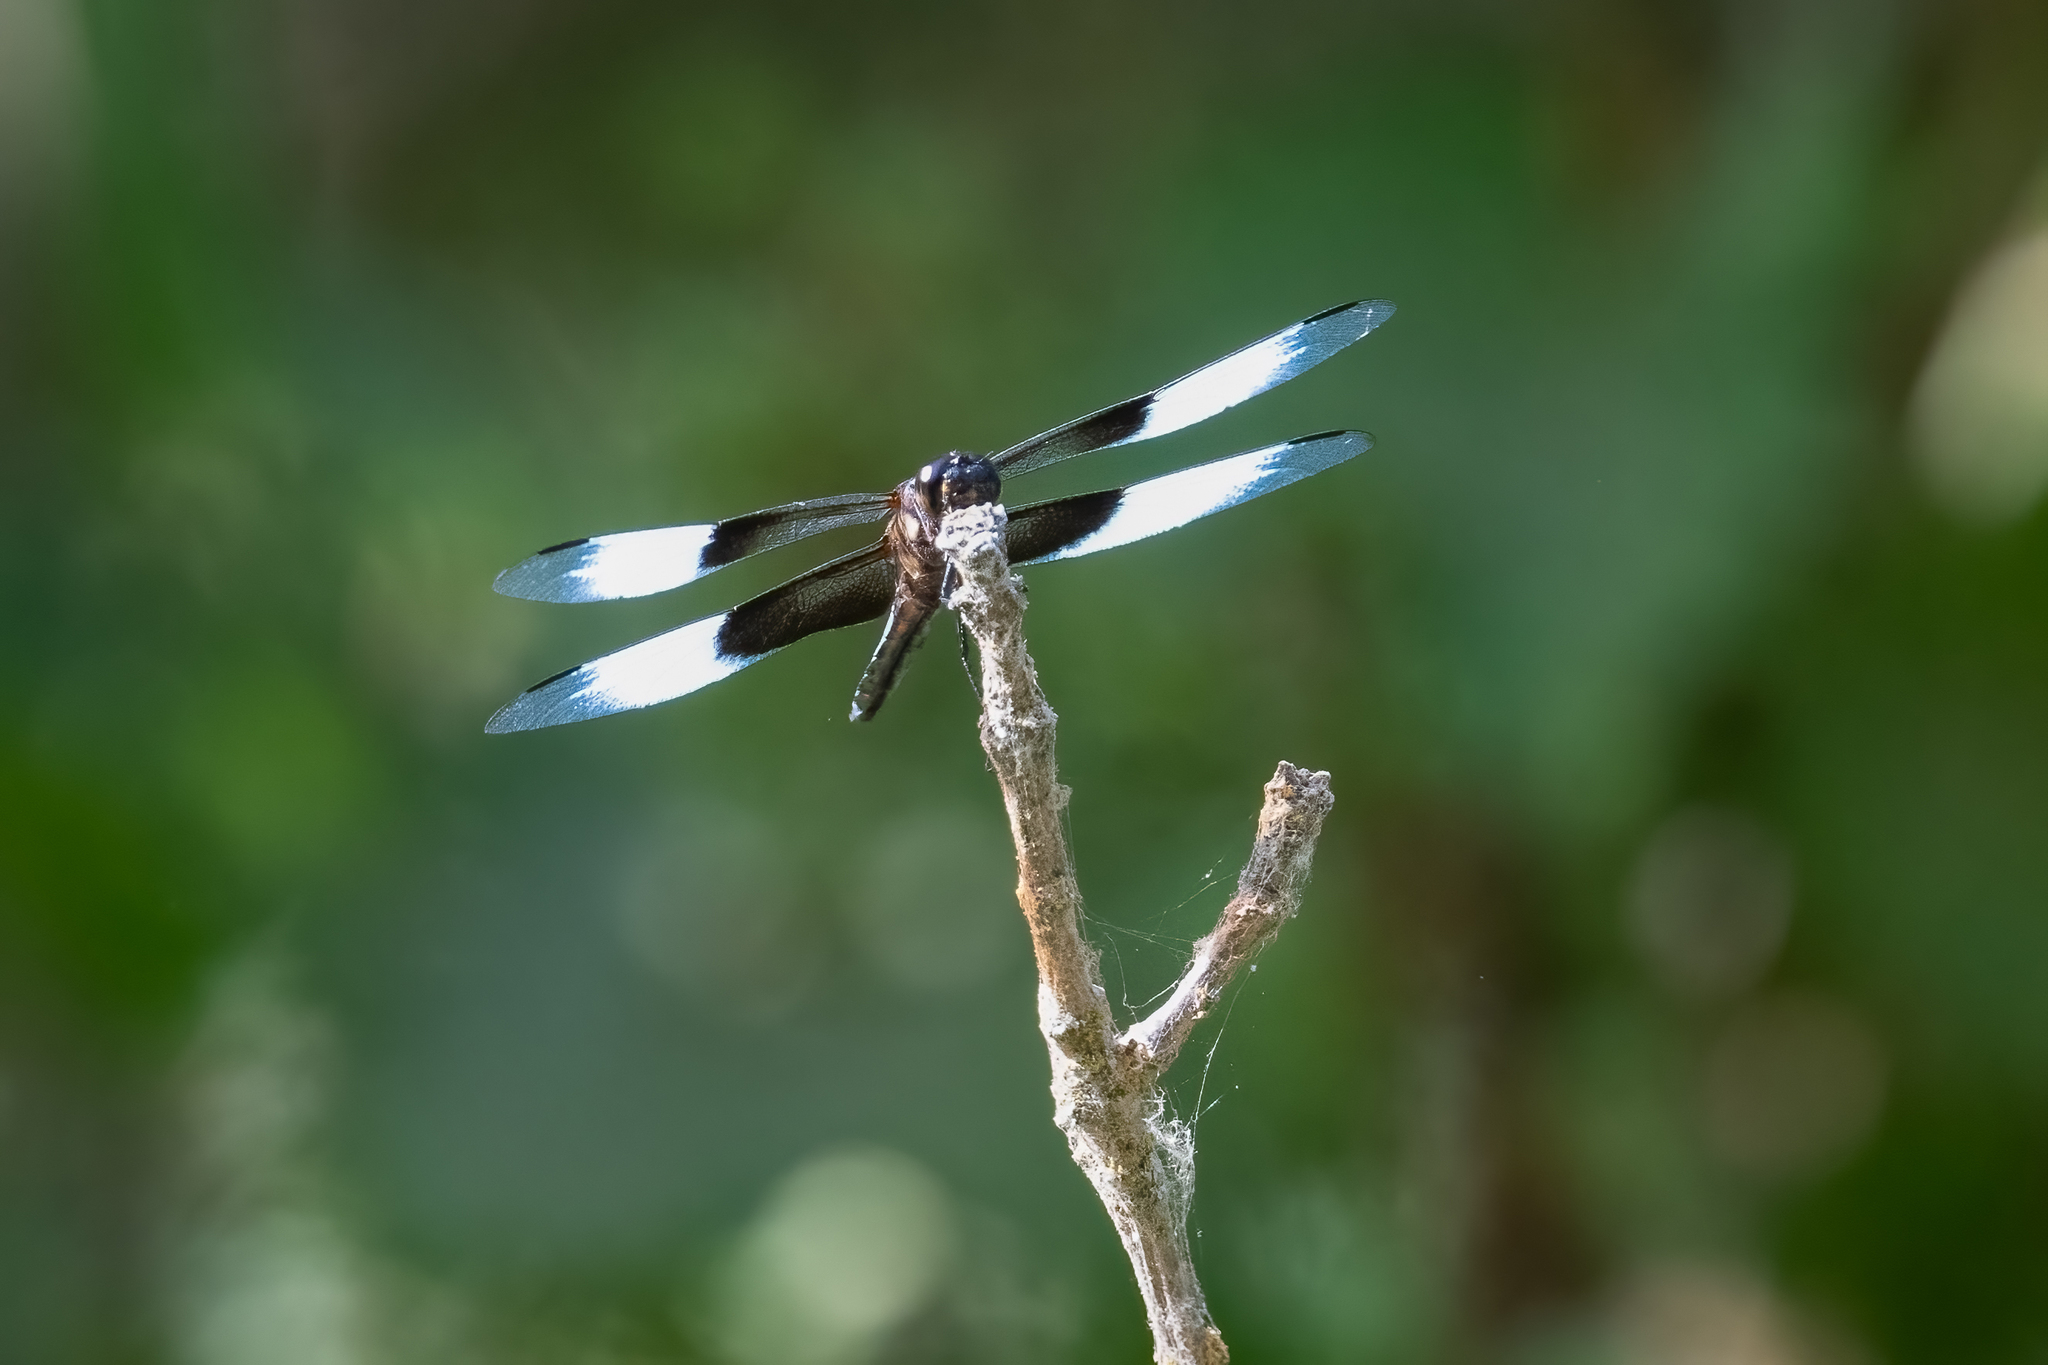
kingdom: Animalia
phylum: Arthropoda
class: Insecta
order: Odonata
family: Libellulidae
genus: Libellula
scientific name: Libellula luctuosa
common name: Widow skimmer
